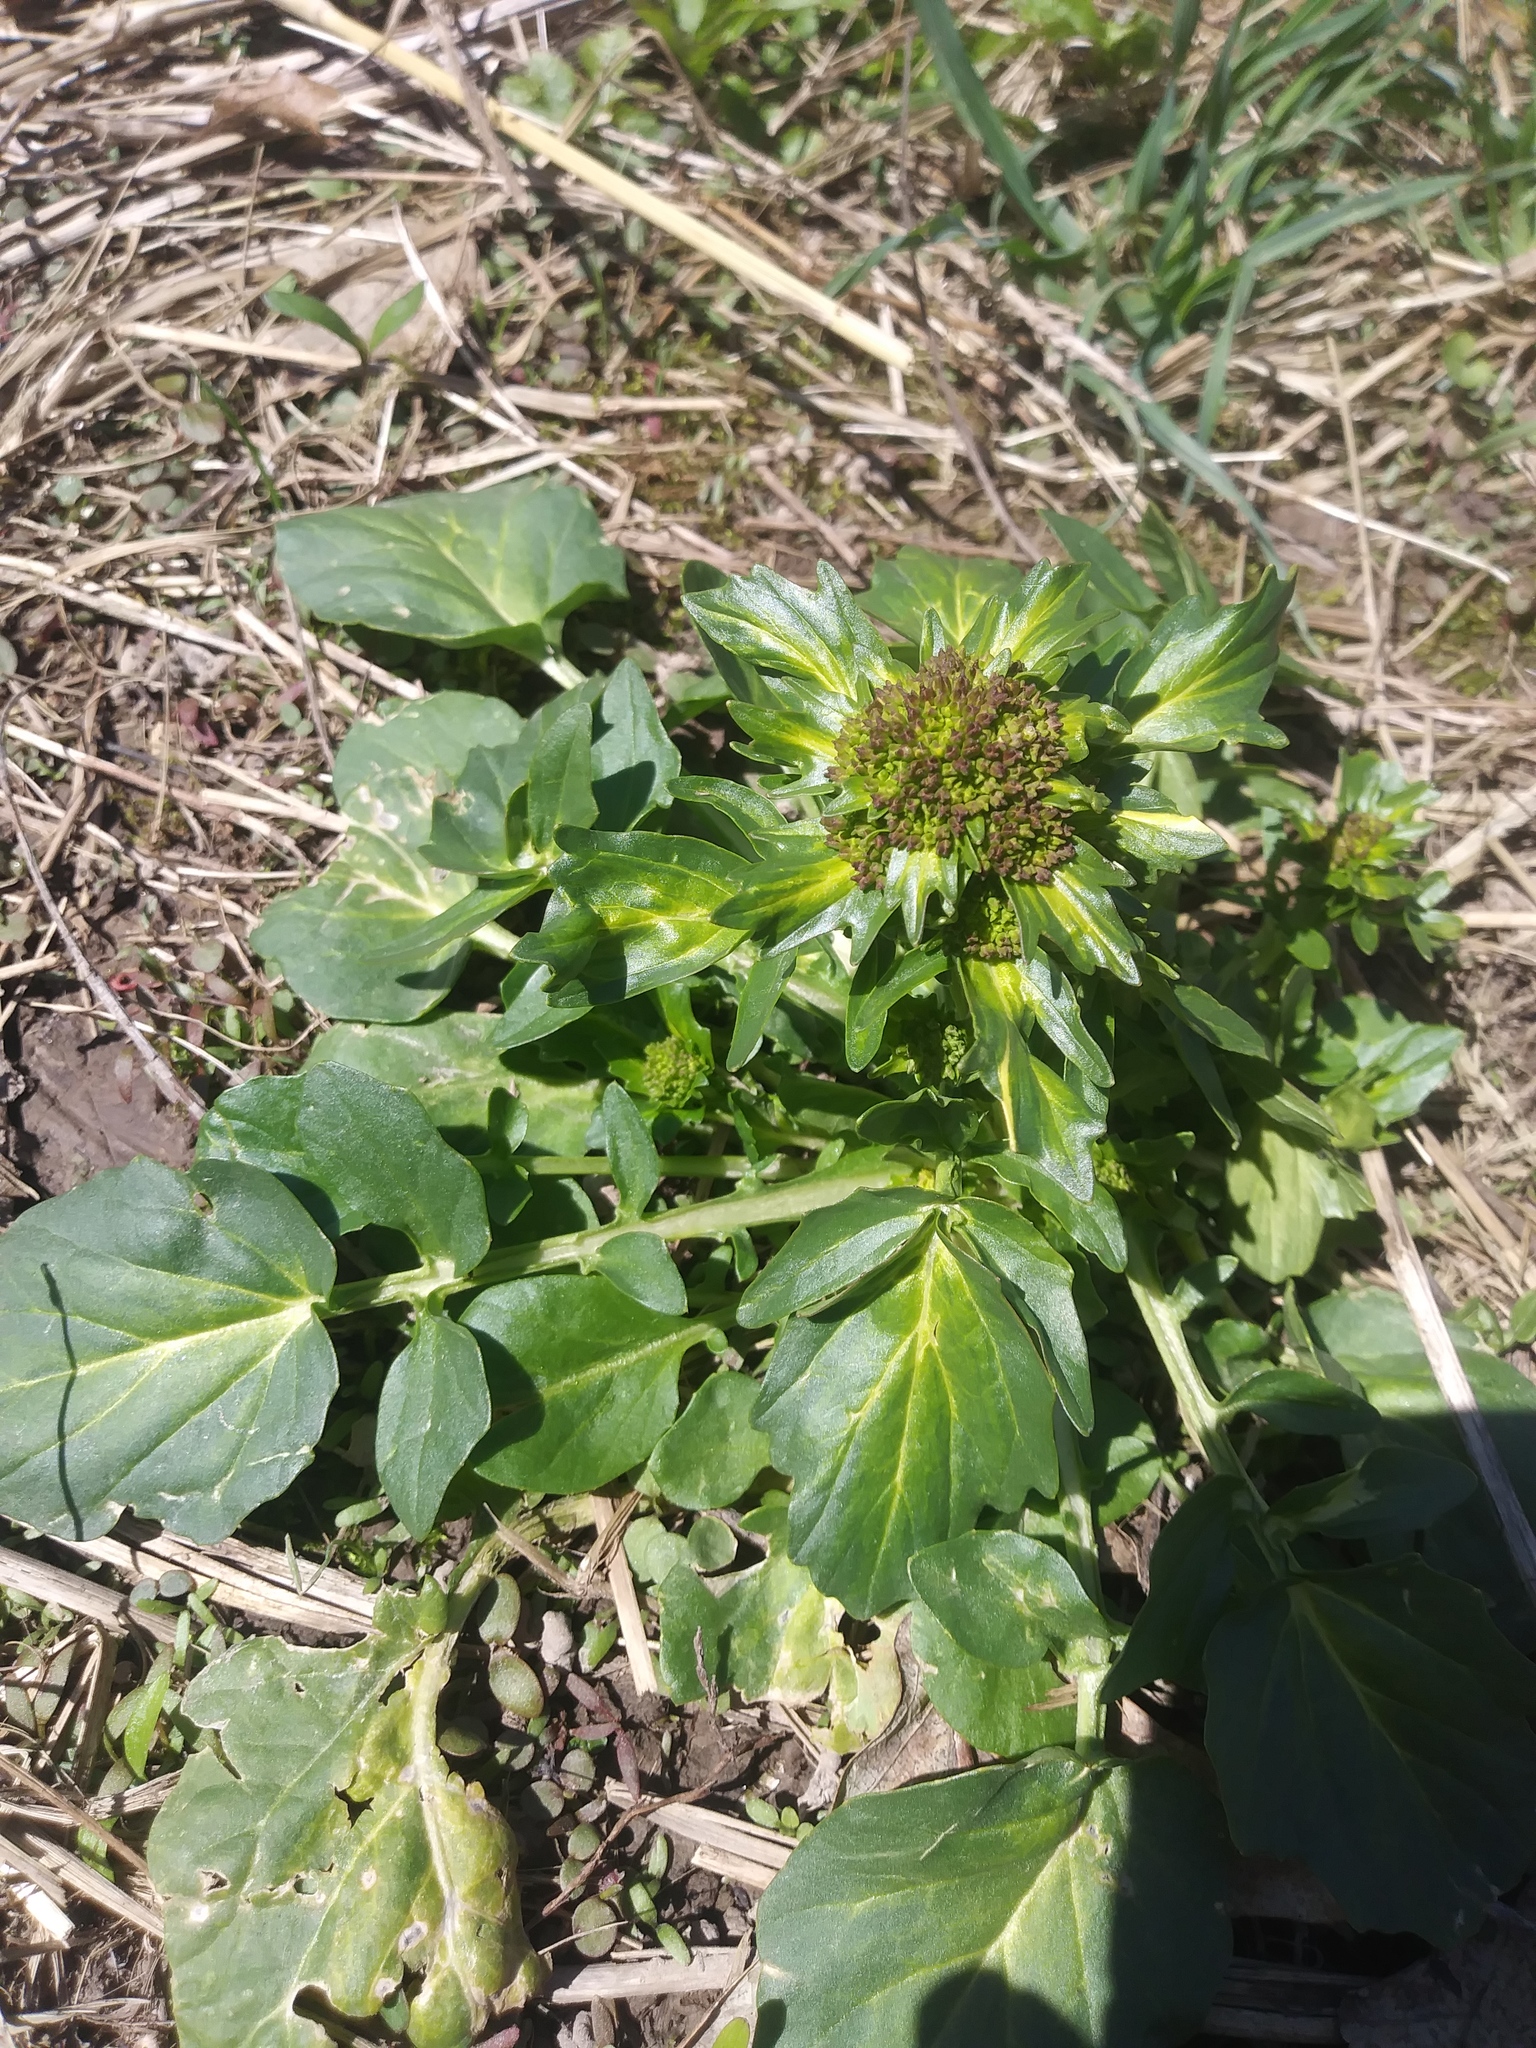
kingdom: Plantae
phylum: Tracheophyta
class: Magnoliopsida
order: Brassicales
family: Brassicaceae
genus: Barbarea
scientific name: Barbarea vulgaris
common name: Cressy-greens
